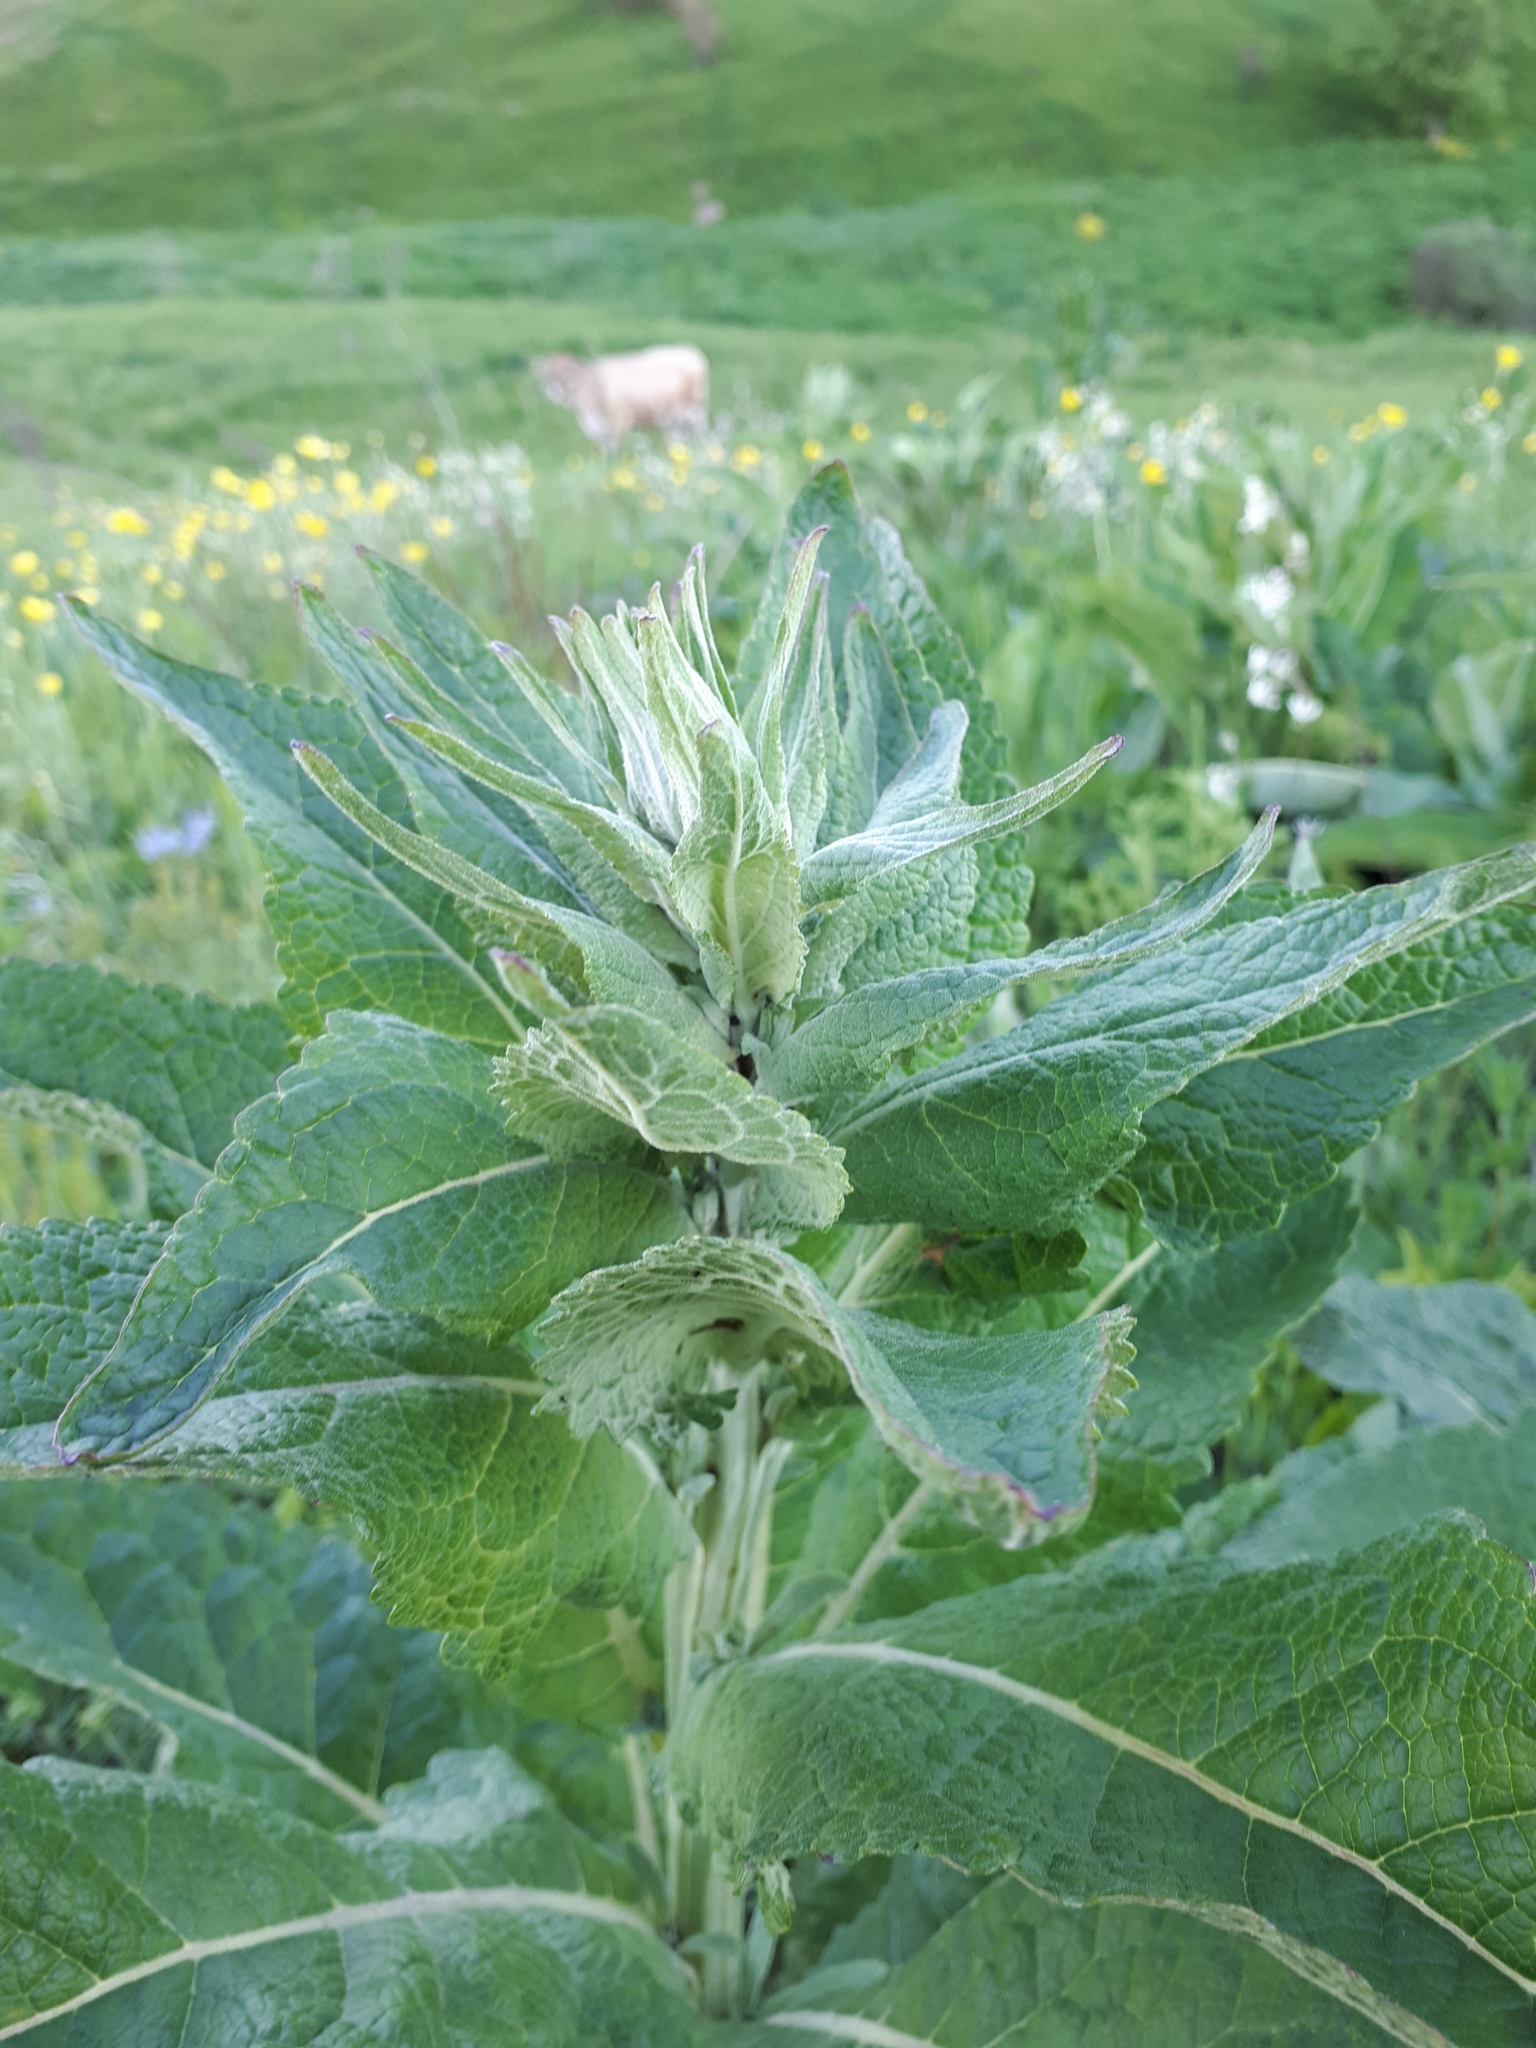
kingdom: Plantae
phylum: Tracheophyta
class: Magnoliopsida
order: Lamiales
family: Scrophulariaceae
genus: Verbascum
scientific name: Verbascum lychnitis
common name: White mullein
